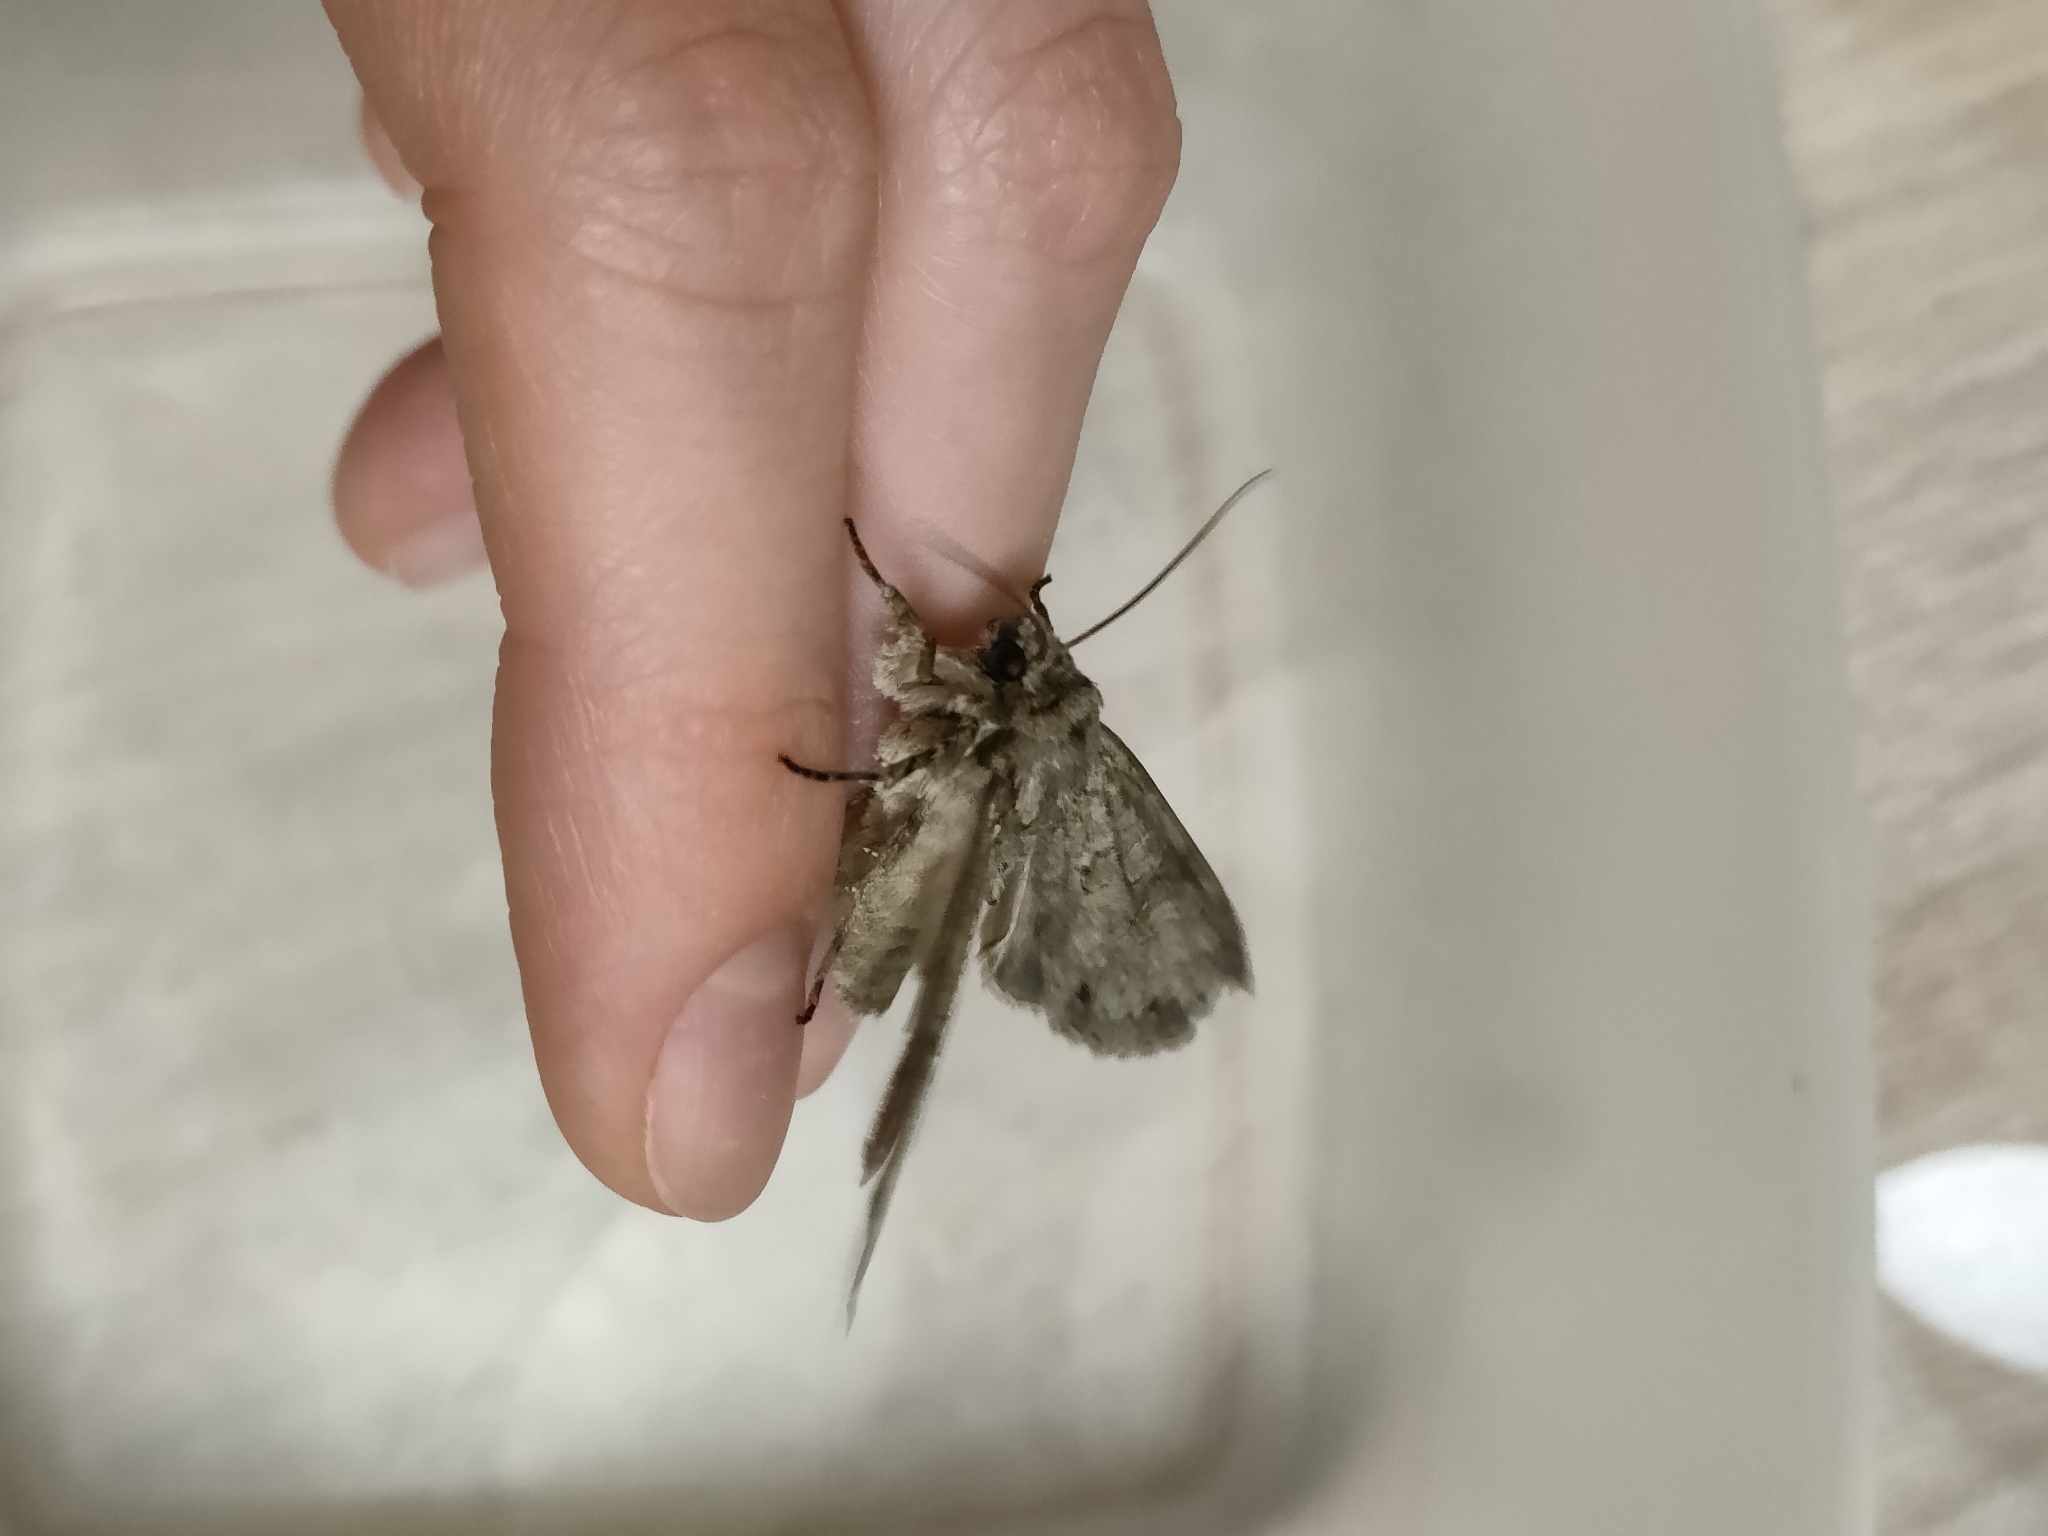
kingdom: Animalia
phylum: Arthropoda
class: Insecta
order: Lepidoptera
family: Noctuidae
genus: Polia
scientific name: Polia nebulosa
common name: Grey arches
